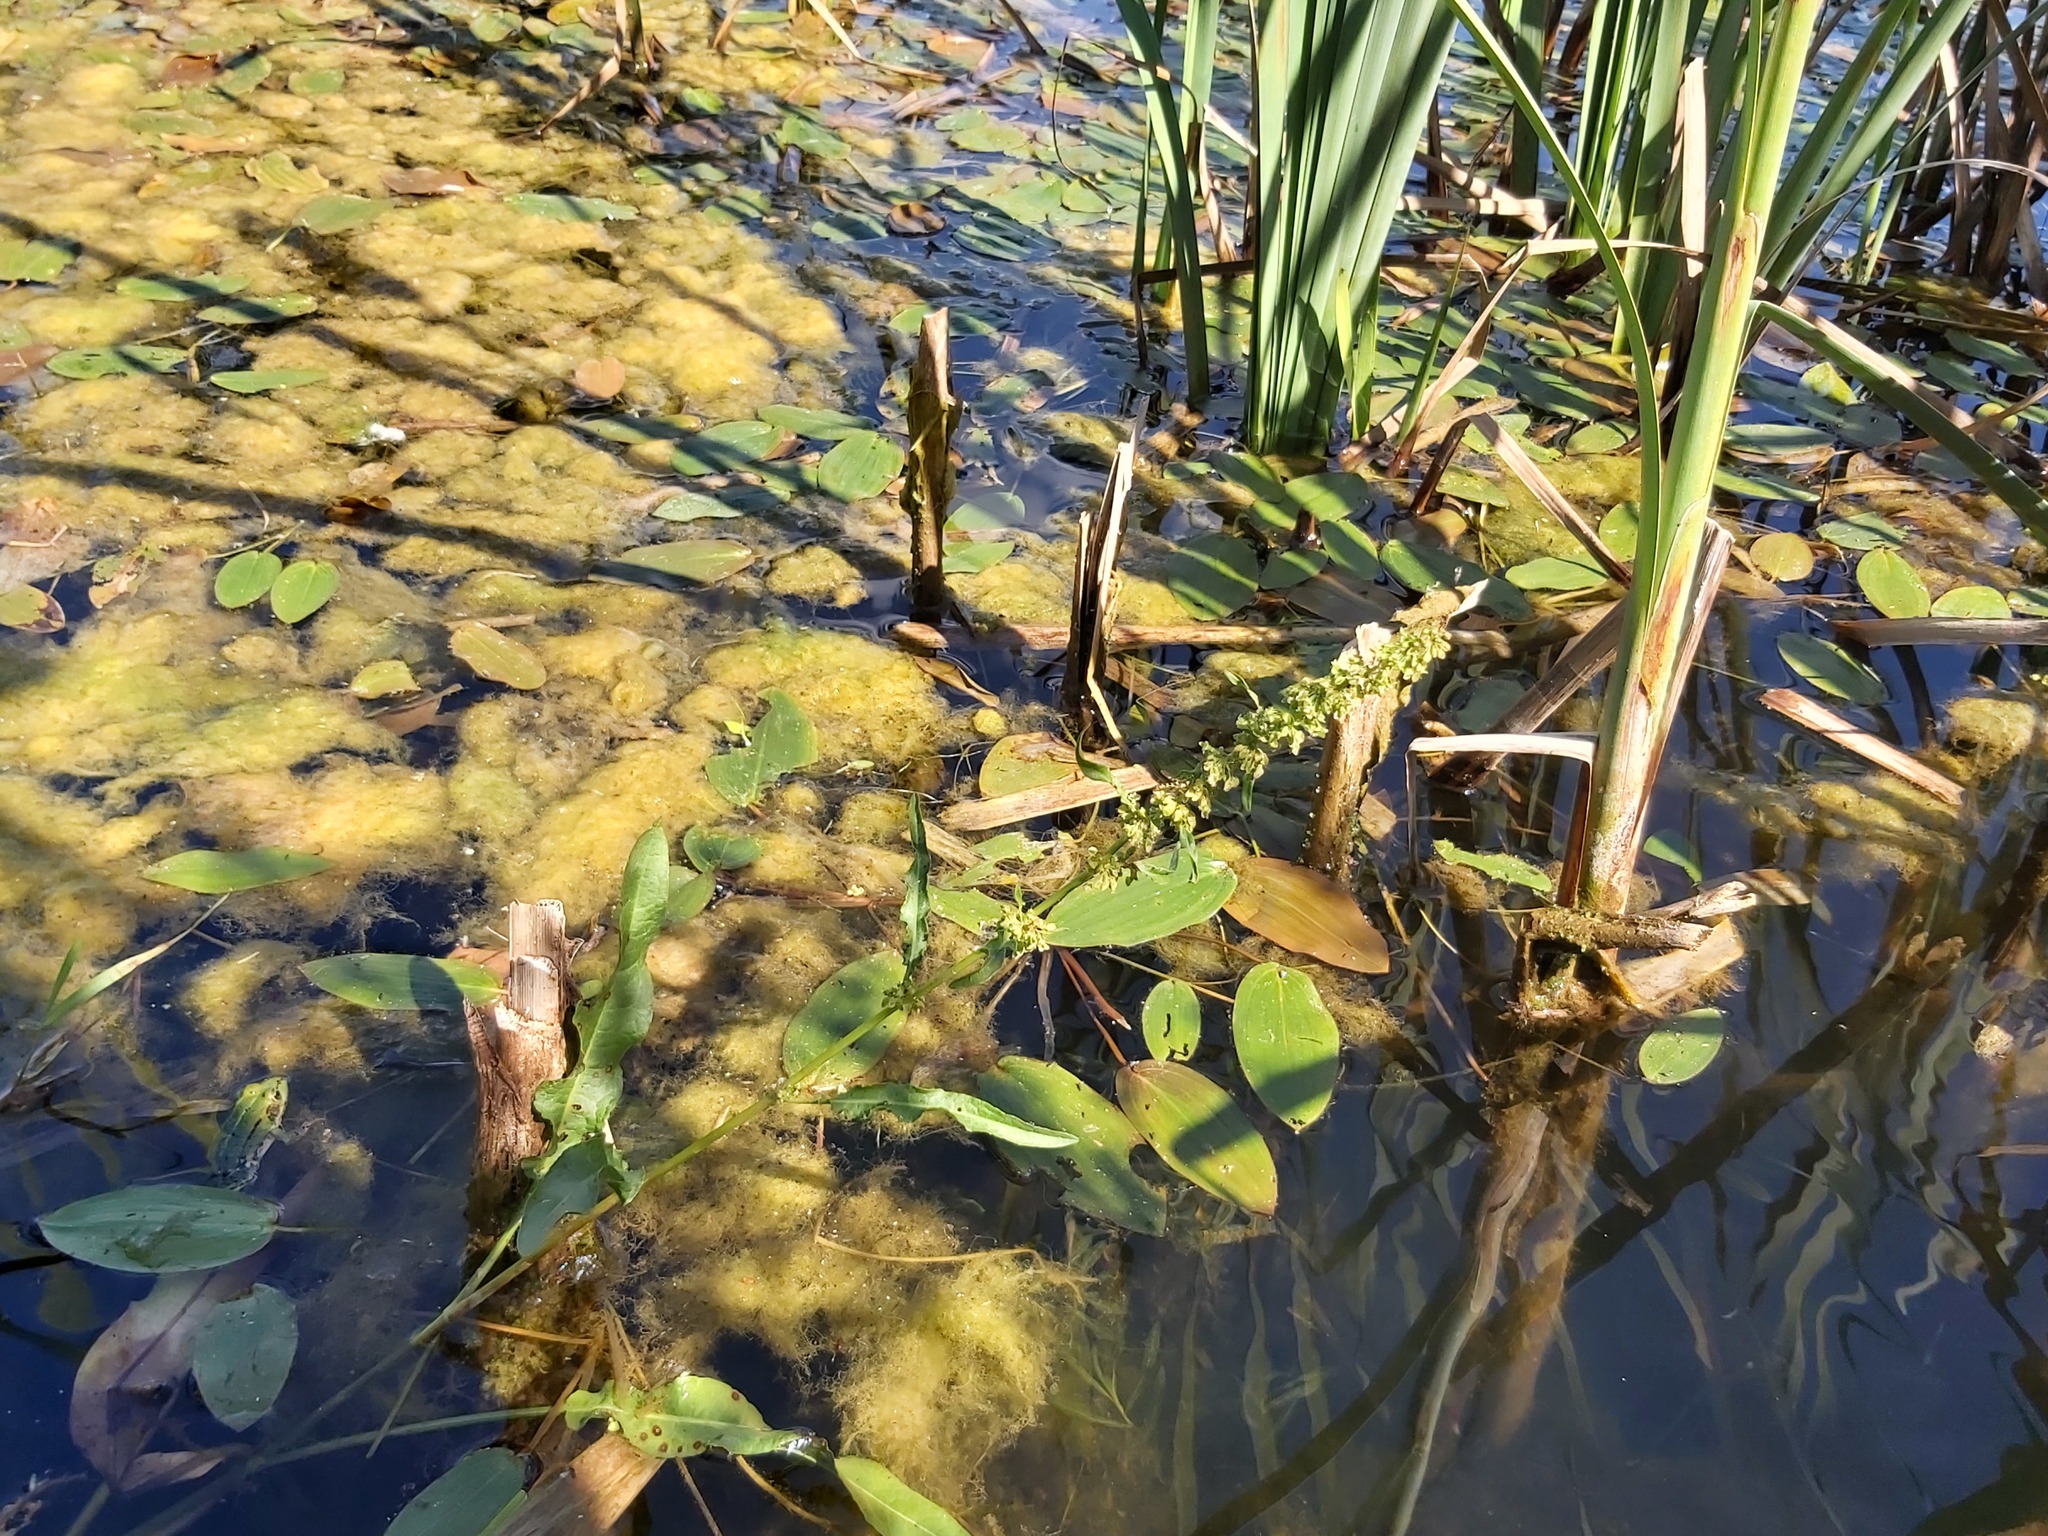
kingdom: Plantae
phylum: Tracheophyta
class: Magnoliopsida
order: Caryophyllales
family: Polygonaceae
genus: Rumex
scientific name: Rumex hydrolapathum
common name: Water dock
